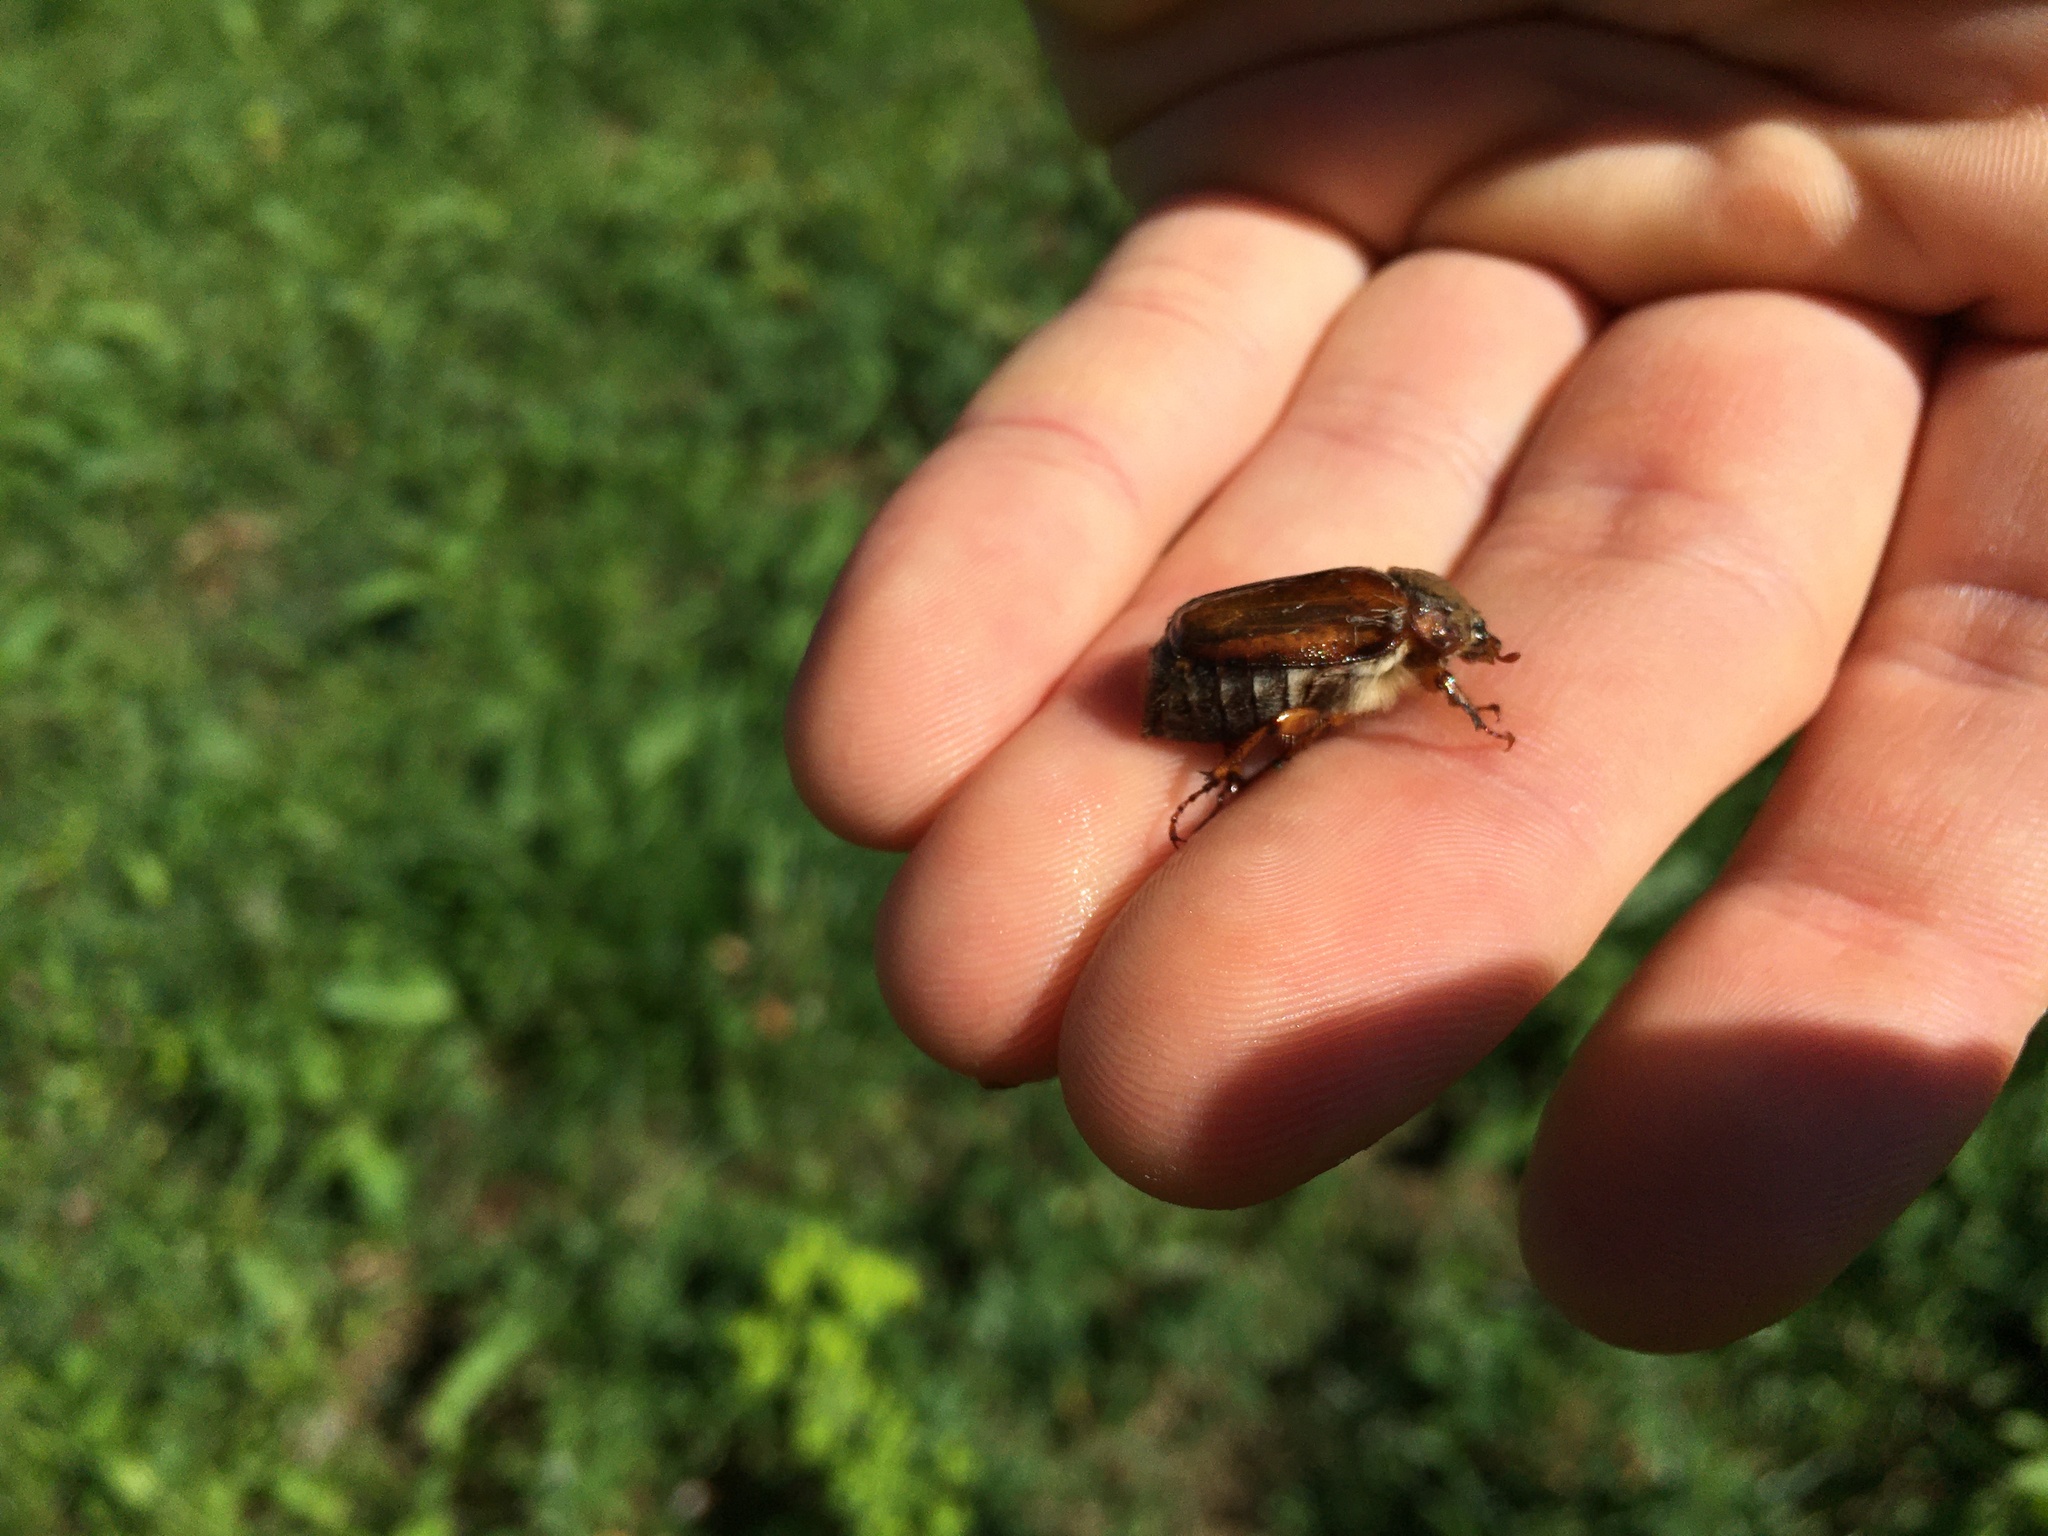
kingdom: Animalia
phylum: Arthropoda
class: Insecta
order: Coleoptera
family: Scarabaeidae
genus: Amphimallon
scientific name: Amphimallon solstitiale
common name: Summer chafer
